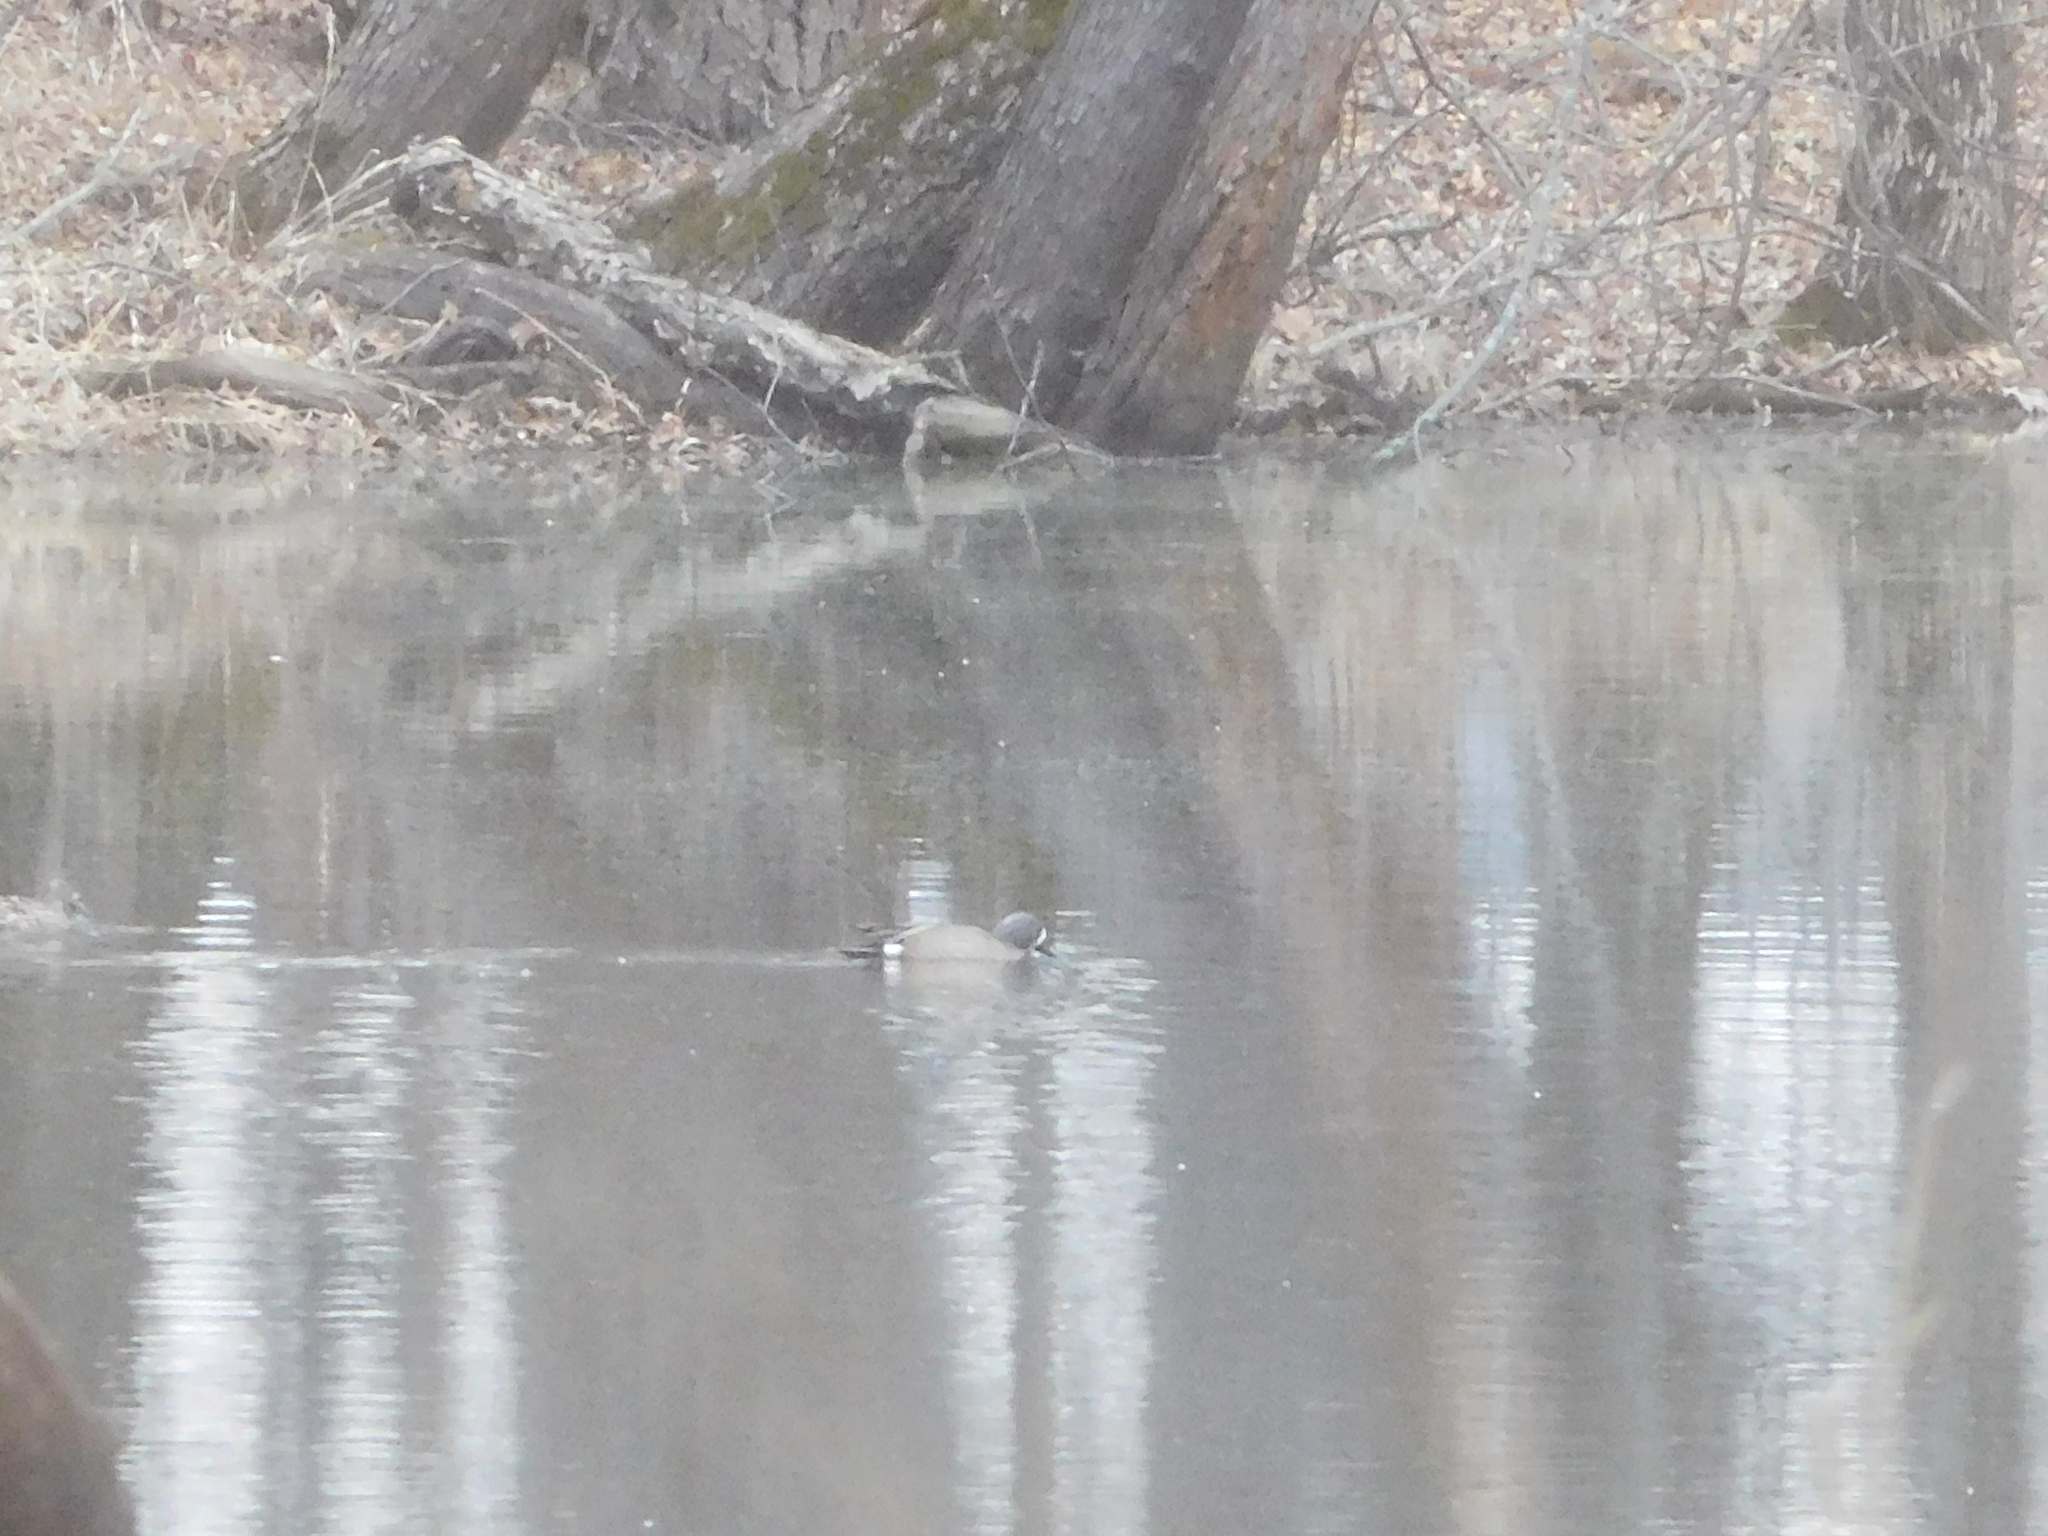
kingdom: Animalia
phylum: Chordata
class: Aves
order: Anseriformes
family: Anatidae
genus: Spatula
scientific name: Spatula discors
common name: Blue-winged teal
